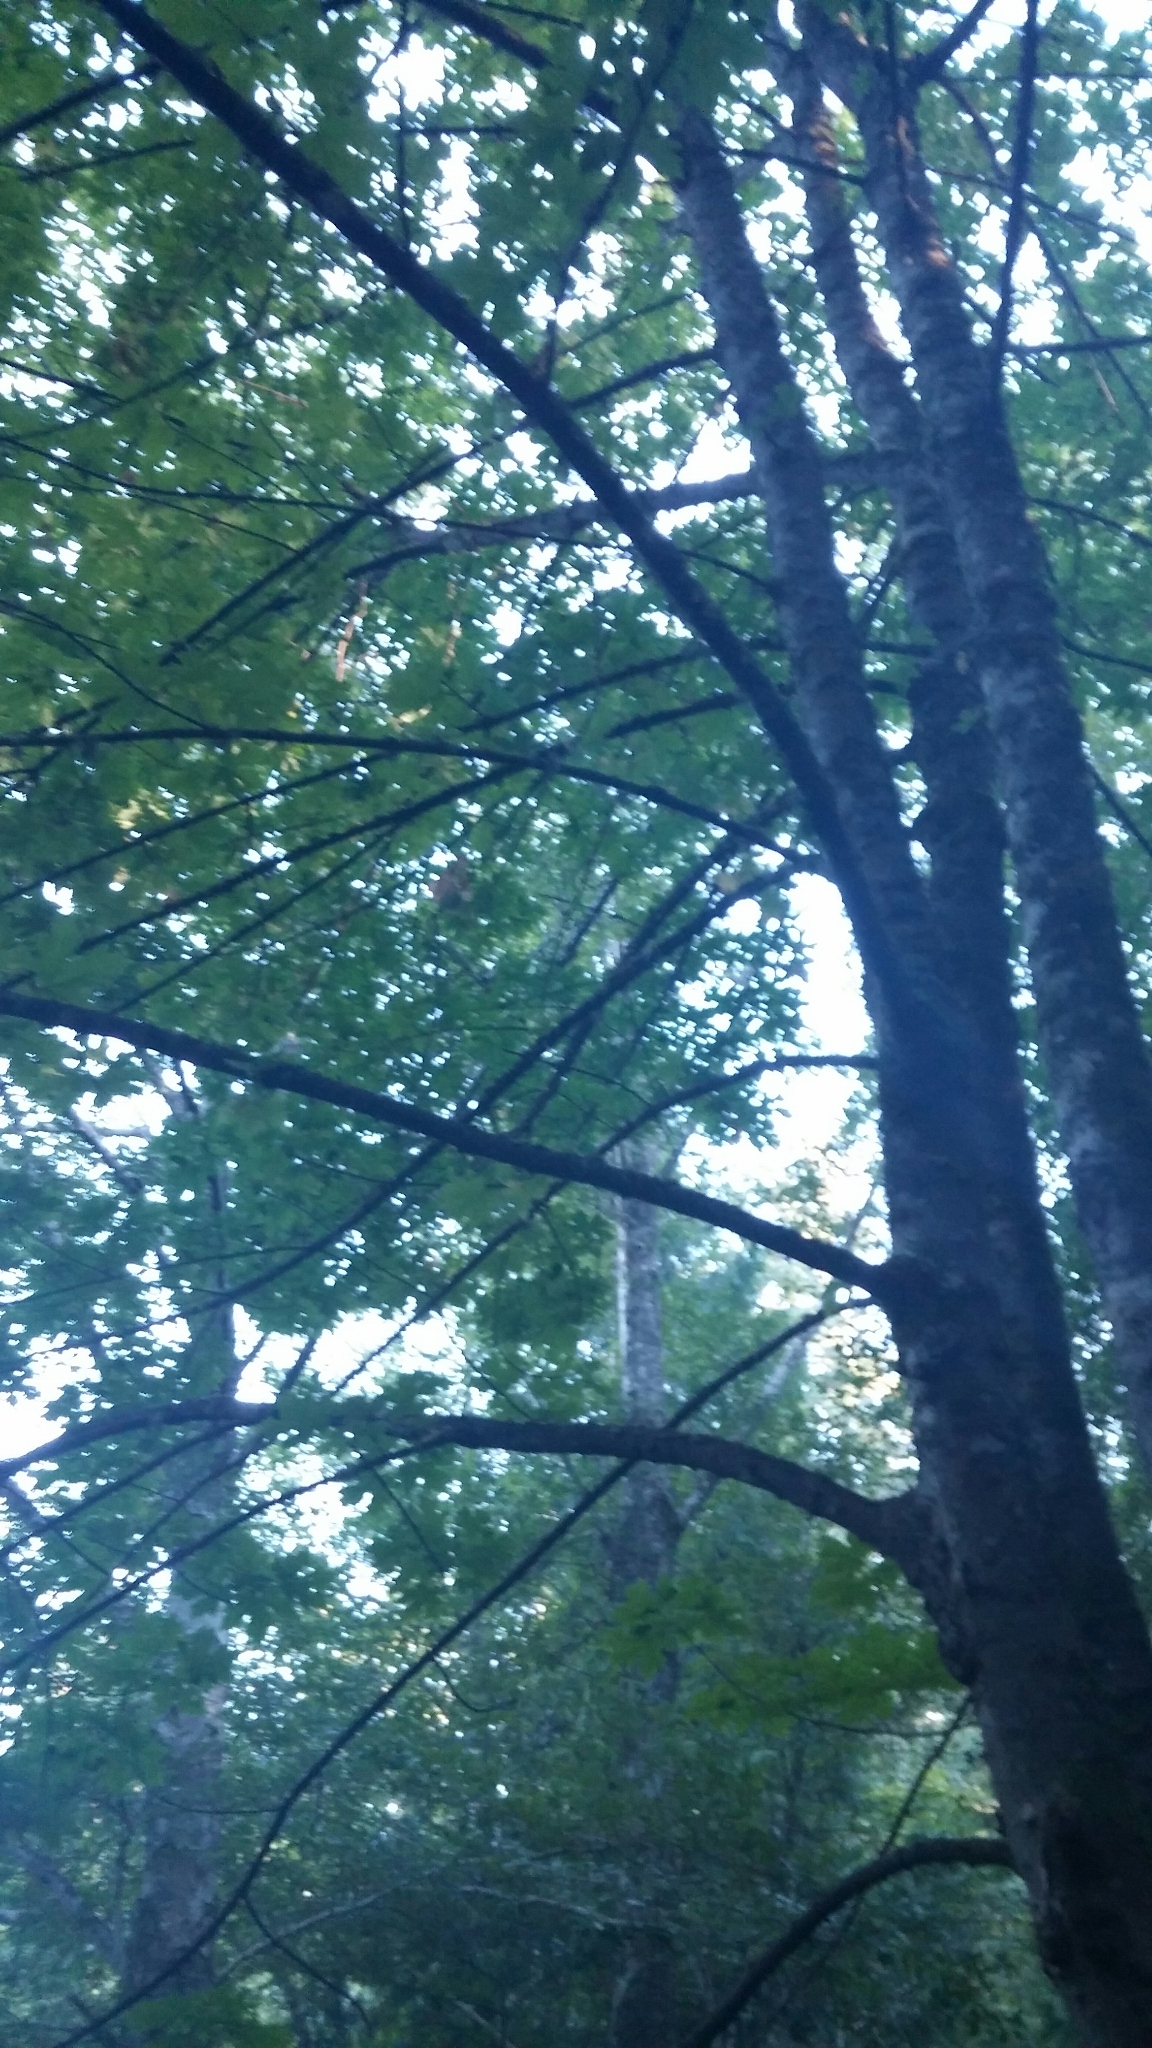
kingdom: Plantae
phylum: Tracheophyta
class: Magnoliopsida
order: Sapindales
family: Sapindaceae
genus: Acer
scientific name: Acer macrophyllum
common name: Oregon maple
